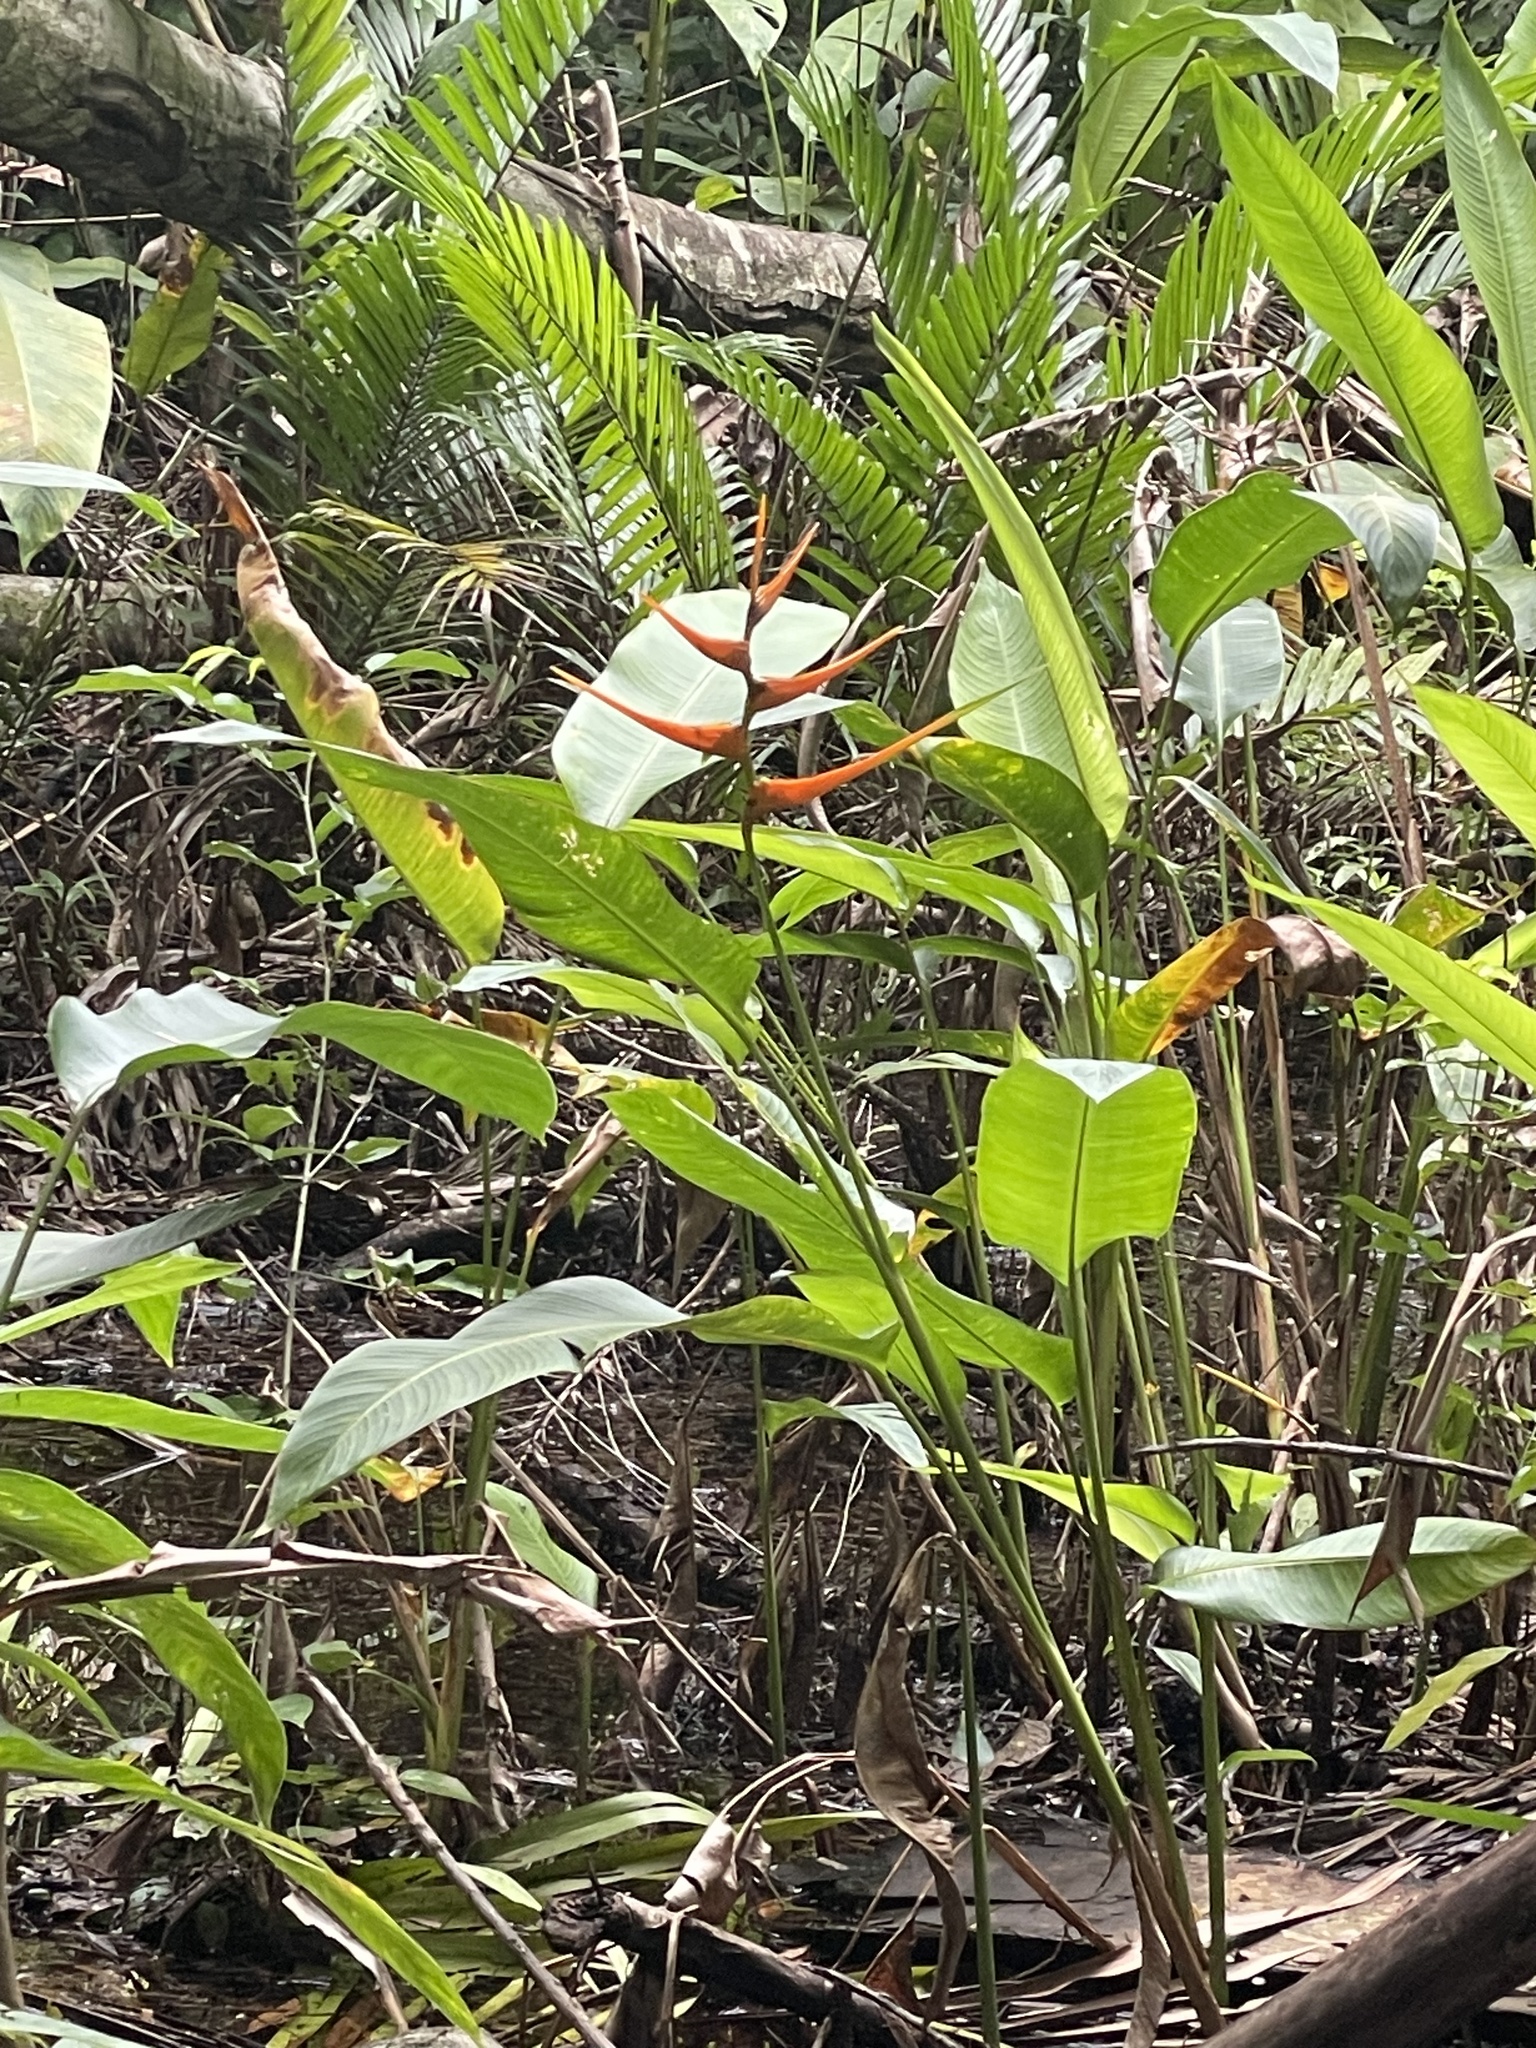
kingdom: Plantae
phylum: Tracheophyta
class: Liliopsida
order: Zingiberales
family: Heliconiaceae
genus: Heliconia
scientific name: Heliconia latispatha
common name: Expanded lobsterclaw
